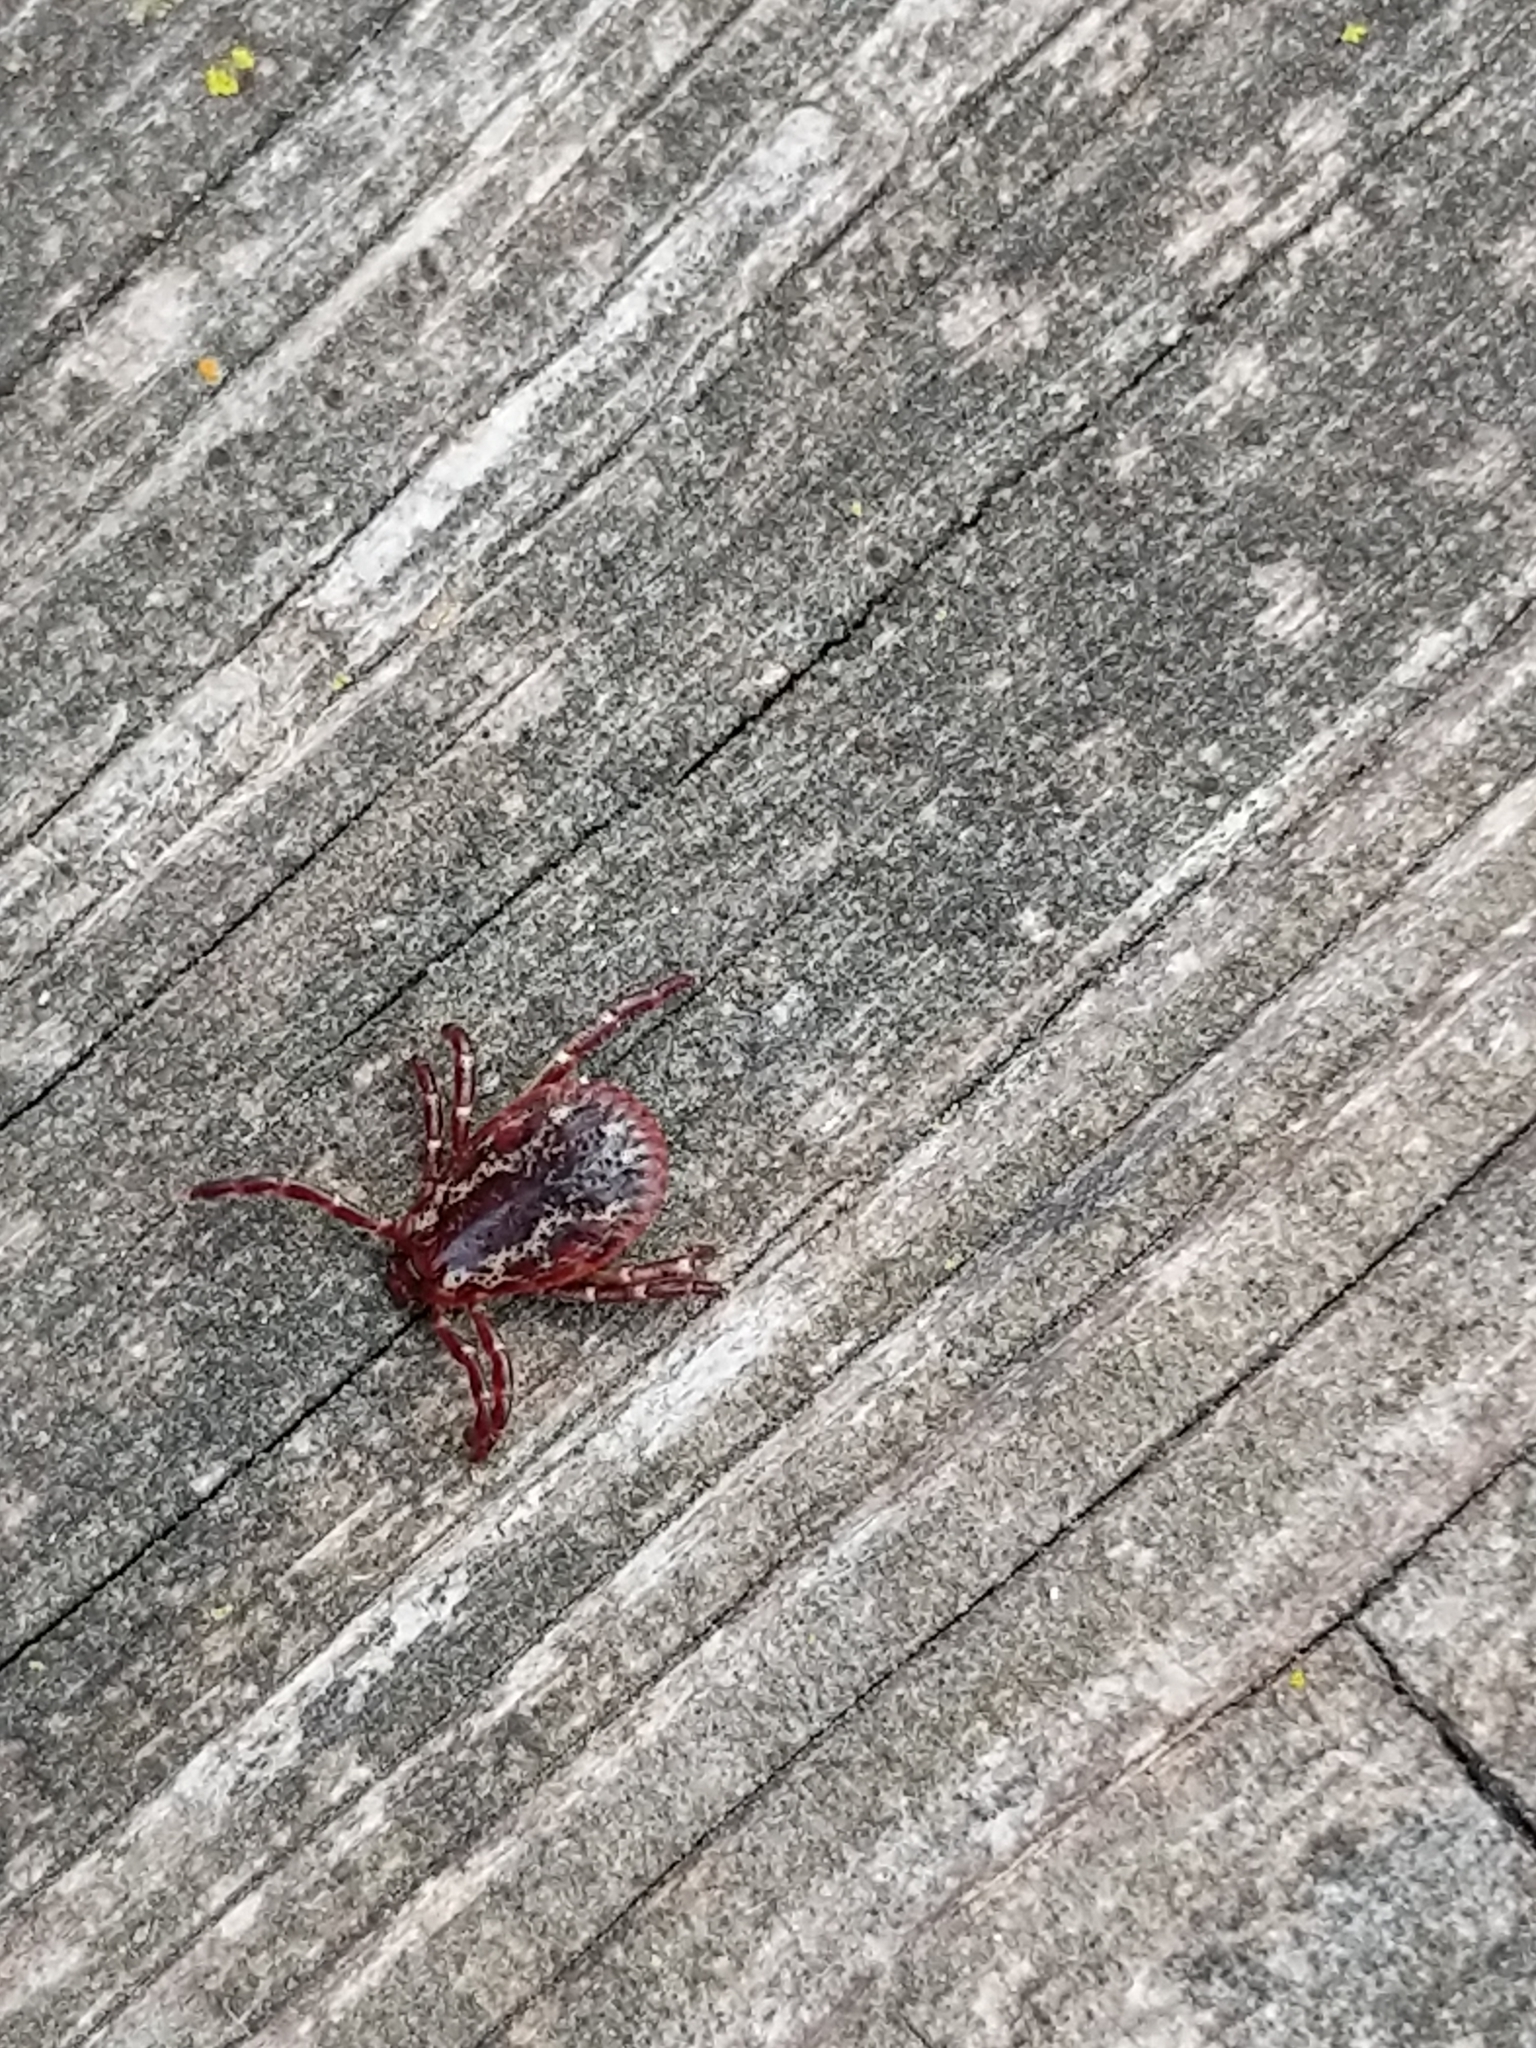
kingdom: Animalia
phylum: Arthropoda
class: Arachnida
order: Ixodida
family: Ixodidae
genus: Dermacentor
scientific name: Dermacentor variabilis
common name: American dog tick
